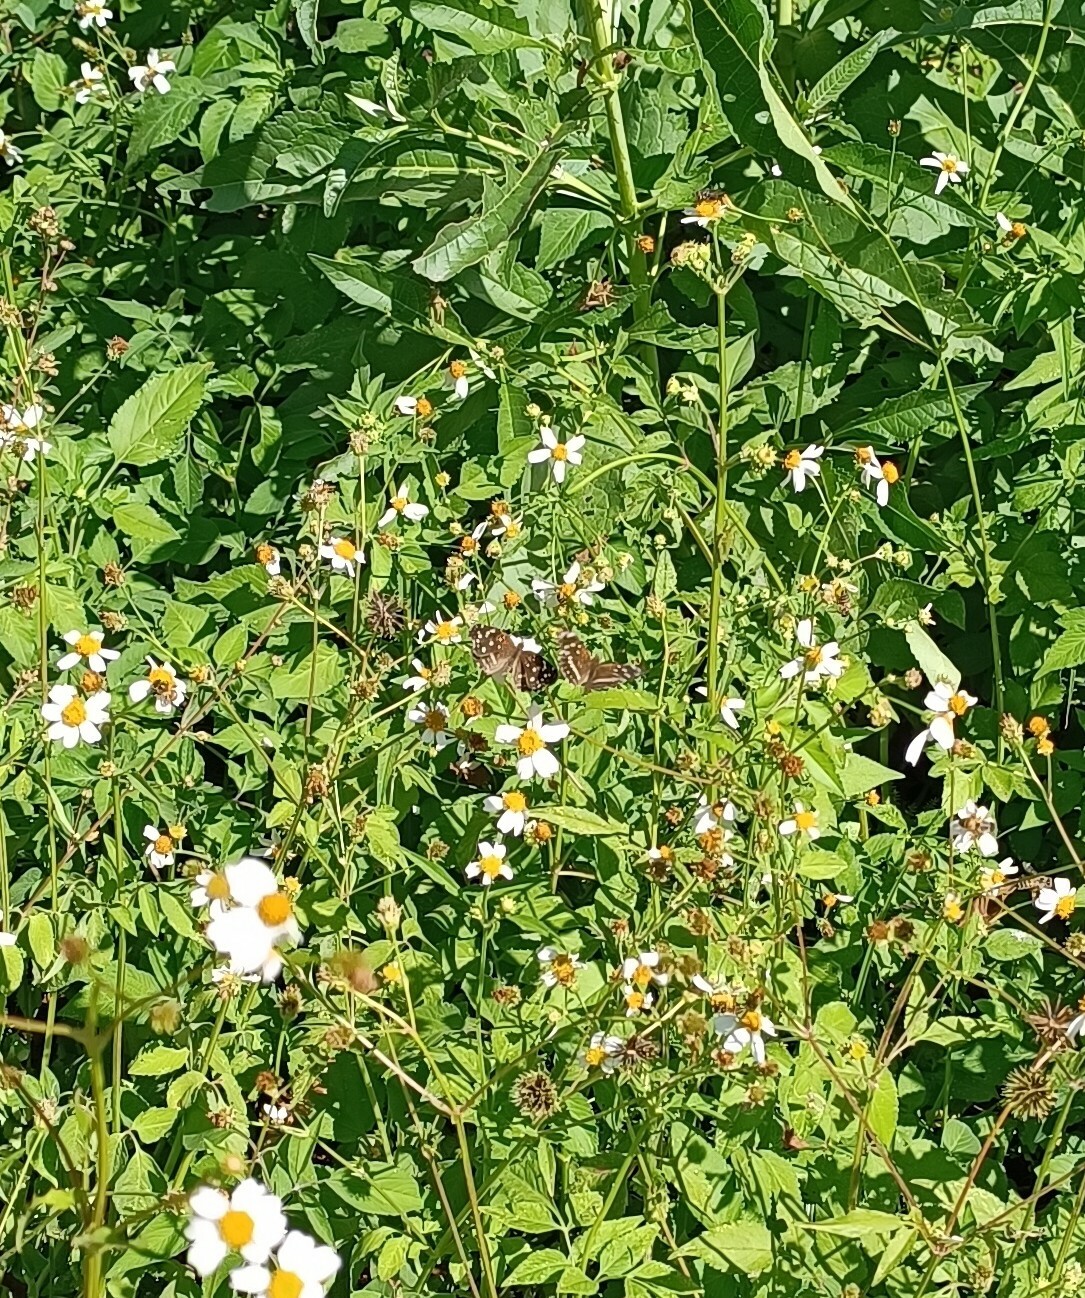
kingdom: Animalia
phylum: Arthropoda
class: Insecta
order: Lepidoptera
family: Nymphalidae
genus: Anthanassa
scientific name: Anthanassa ardys
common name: Ardys crescent
